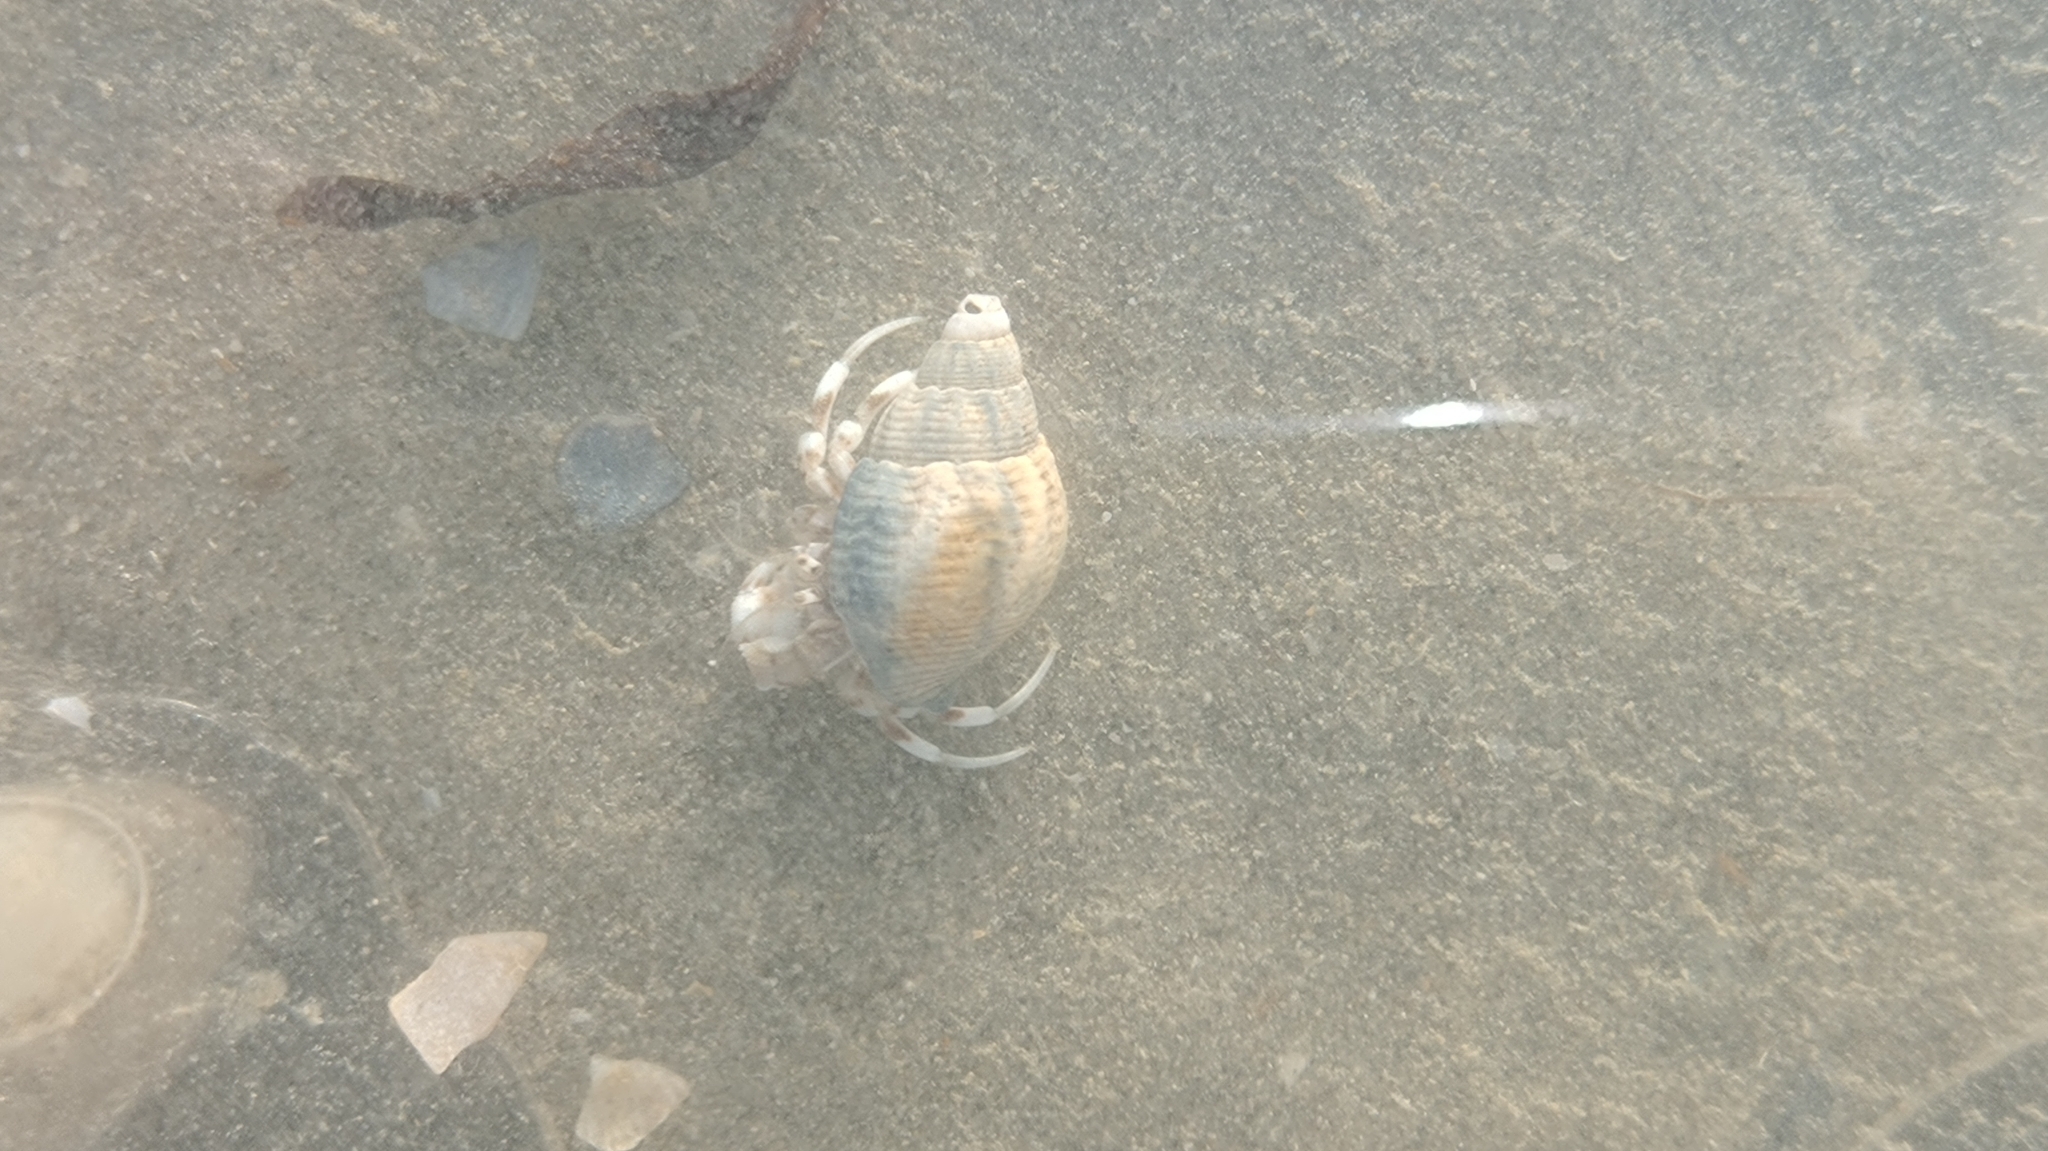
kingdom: Animalia
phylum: Arthropoda
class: Malacostraca
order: Decapoda
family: Diogenidae
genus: Diogenes
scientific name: Diogenes pugilator
